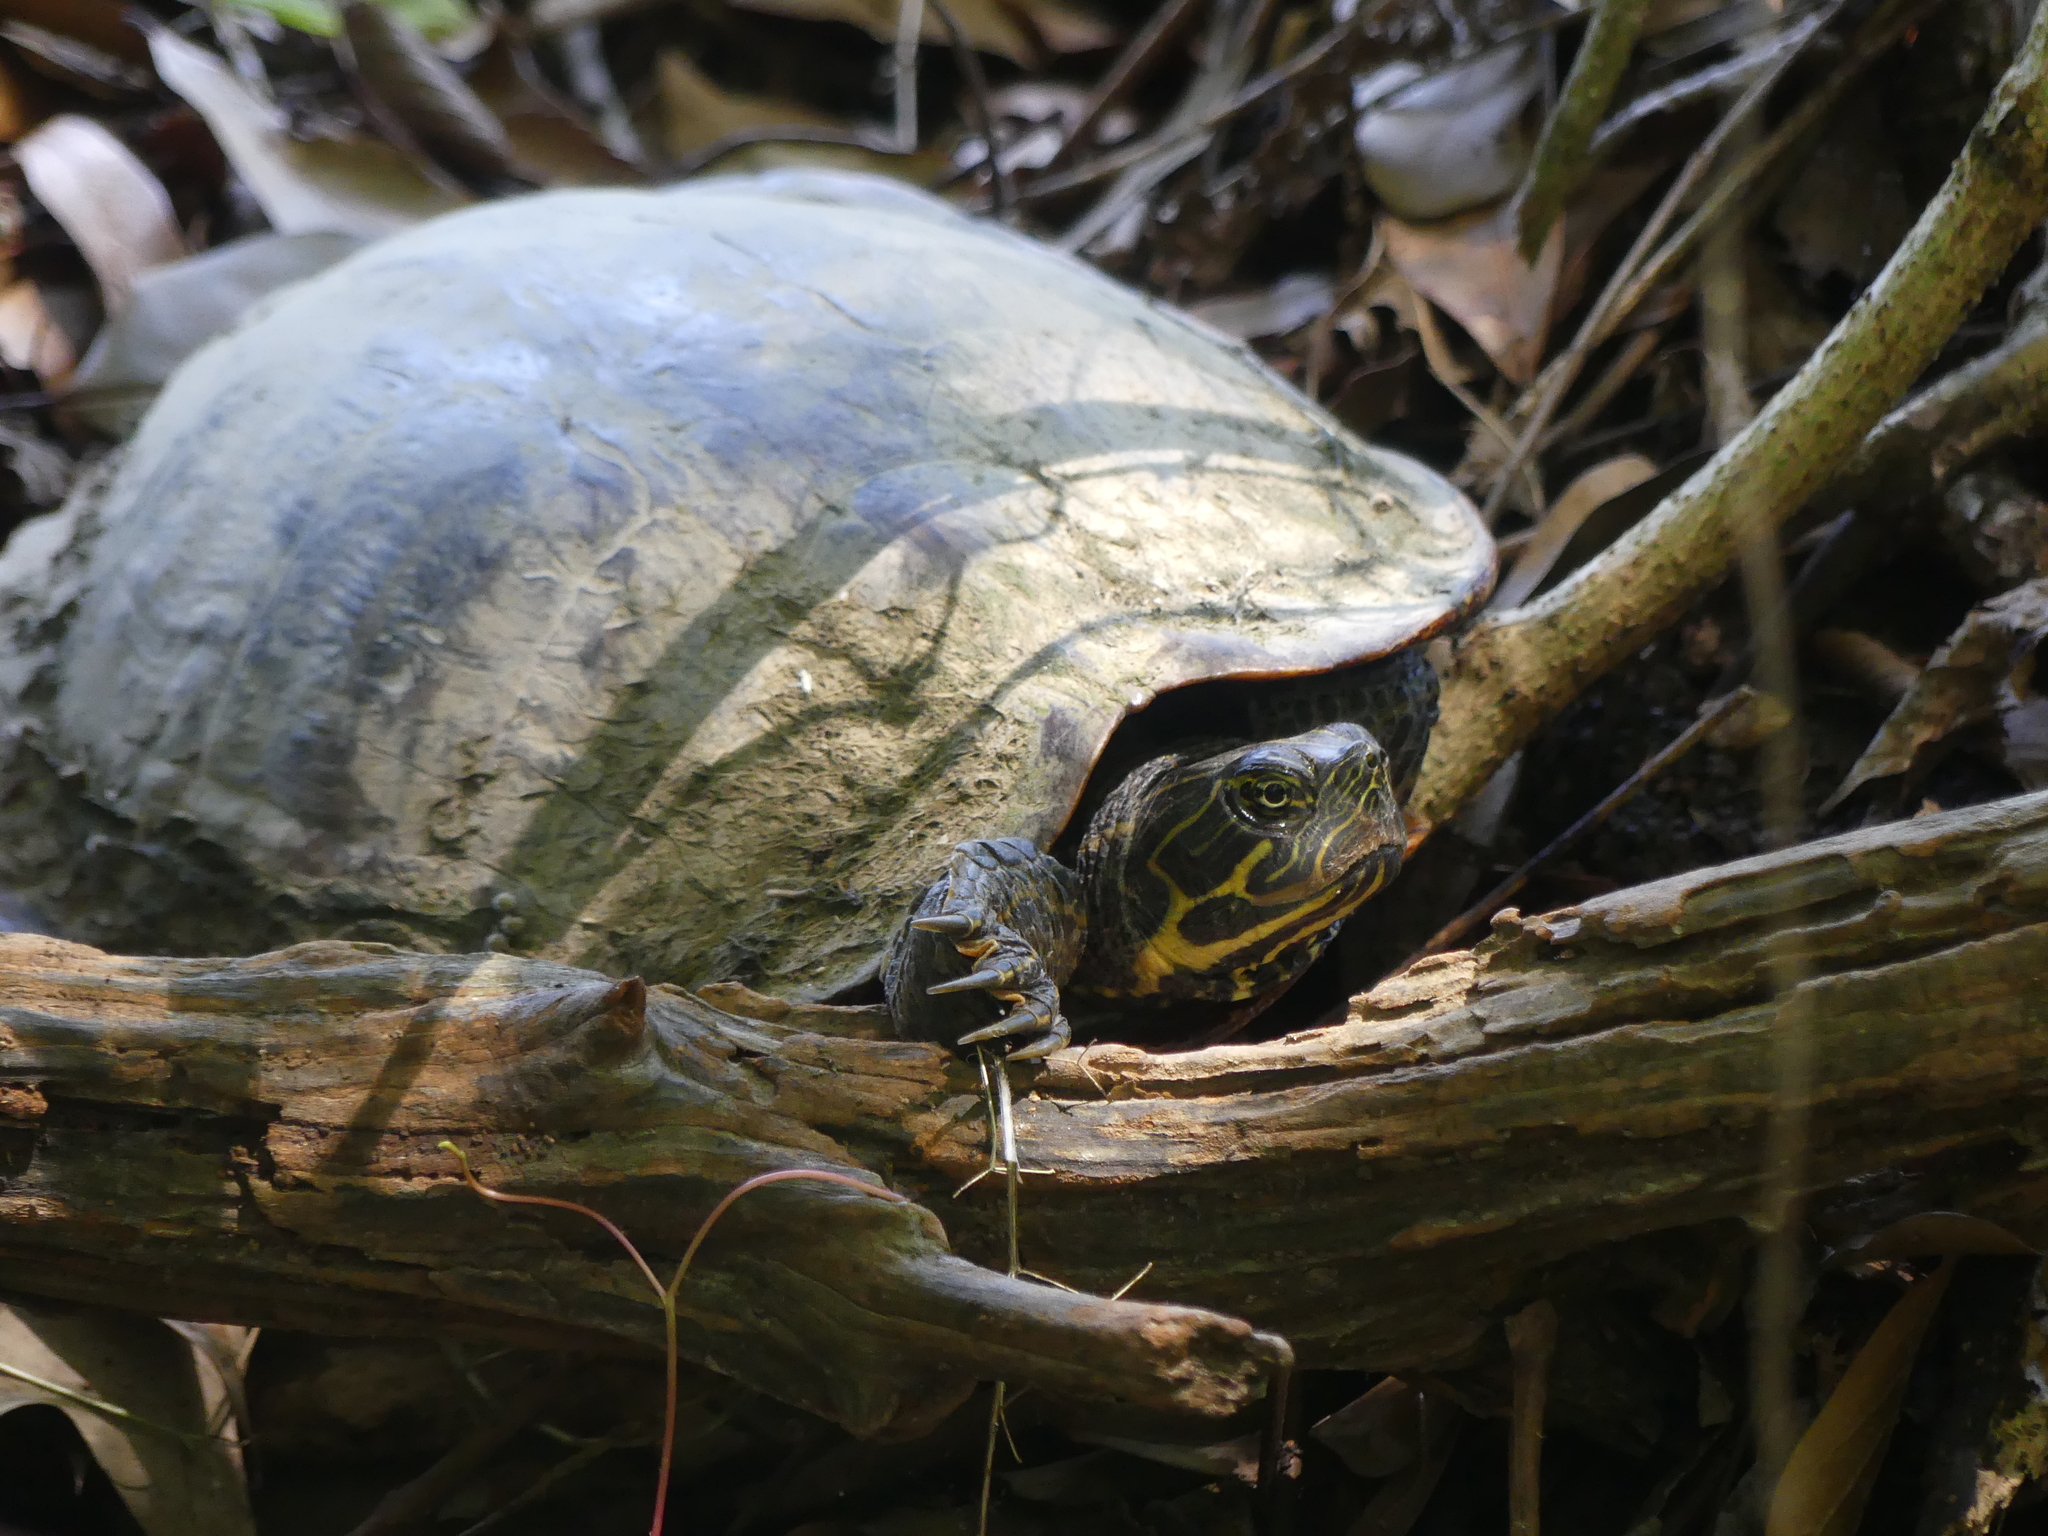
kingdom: Animalia
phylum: Chordata
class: Testudines
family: Emydidae
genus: Pseudemys
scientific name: Pseudemys concinna
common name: Eastern river cooter
